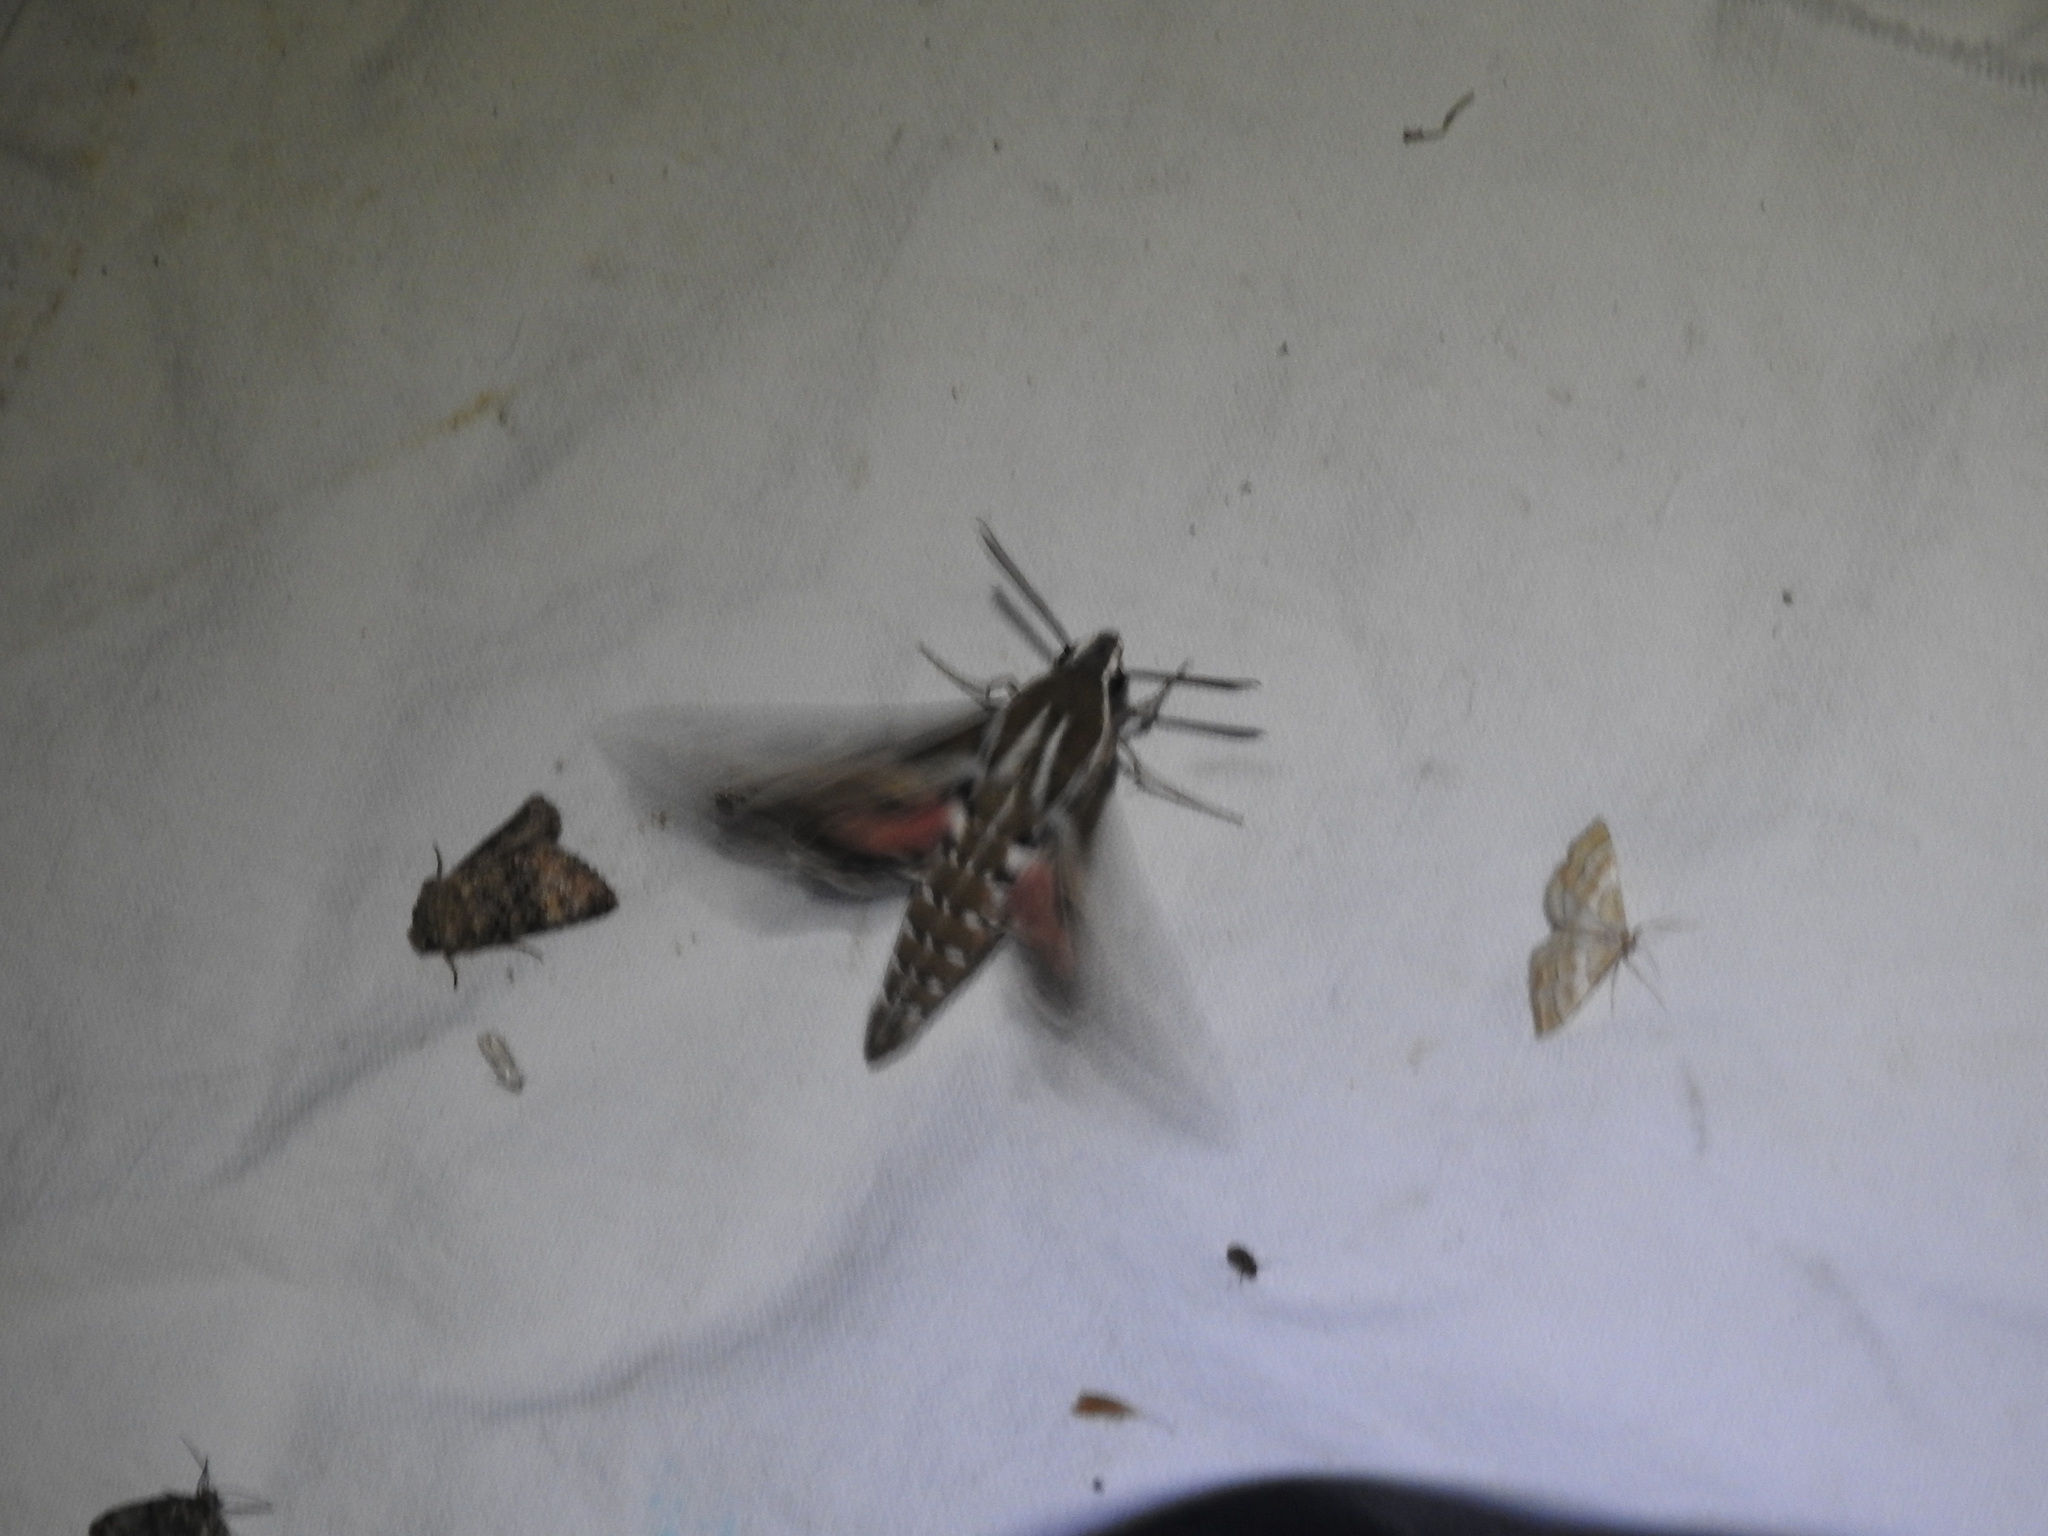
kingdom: Animalia
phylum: Arthropoda
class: Insecta
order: Lepidoptera
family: Sphingidae
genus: Hyles
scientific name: Hyles livornica
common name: Striped hawk-moth
